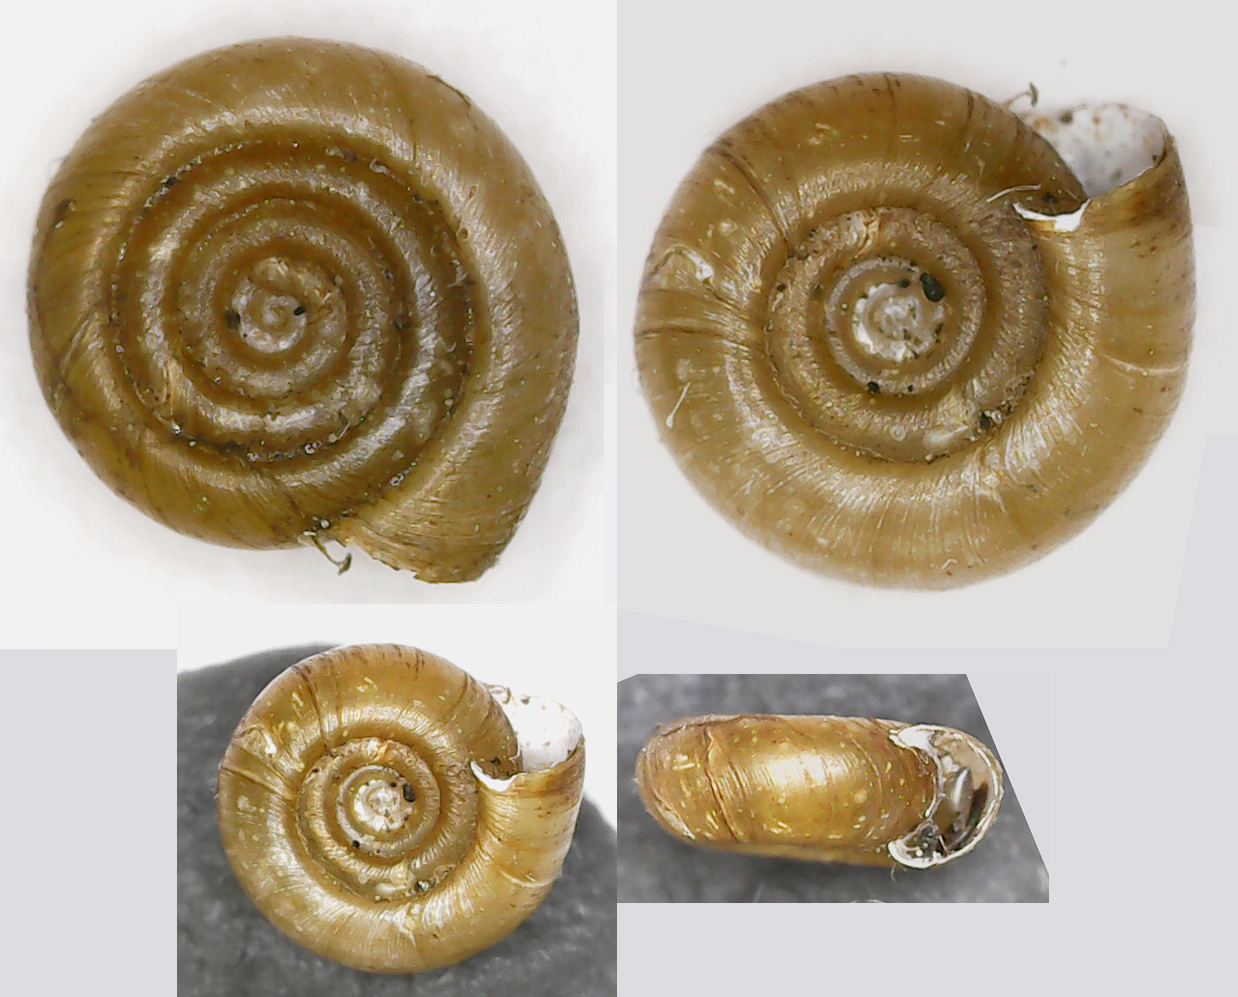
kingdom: Animalia
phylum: Mollusca
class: Gastropoda
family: Planorbidae
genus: Bathyomphalus
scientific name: Bathyomphalus contortus
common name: Twisted ramshorn
